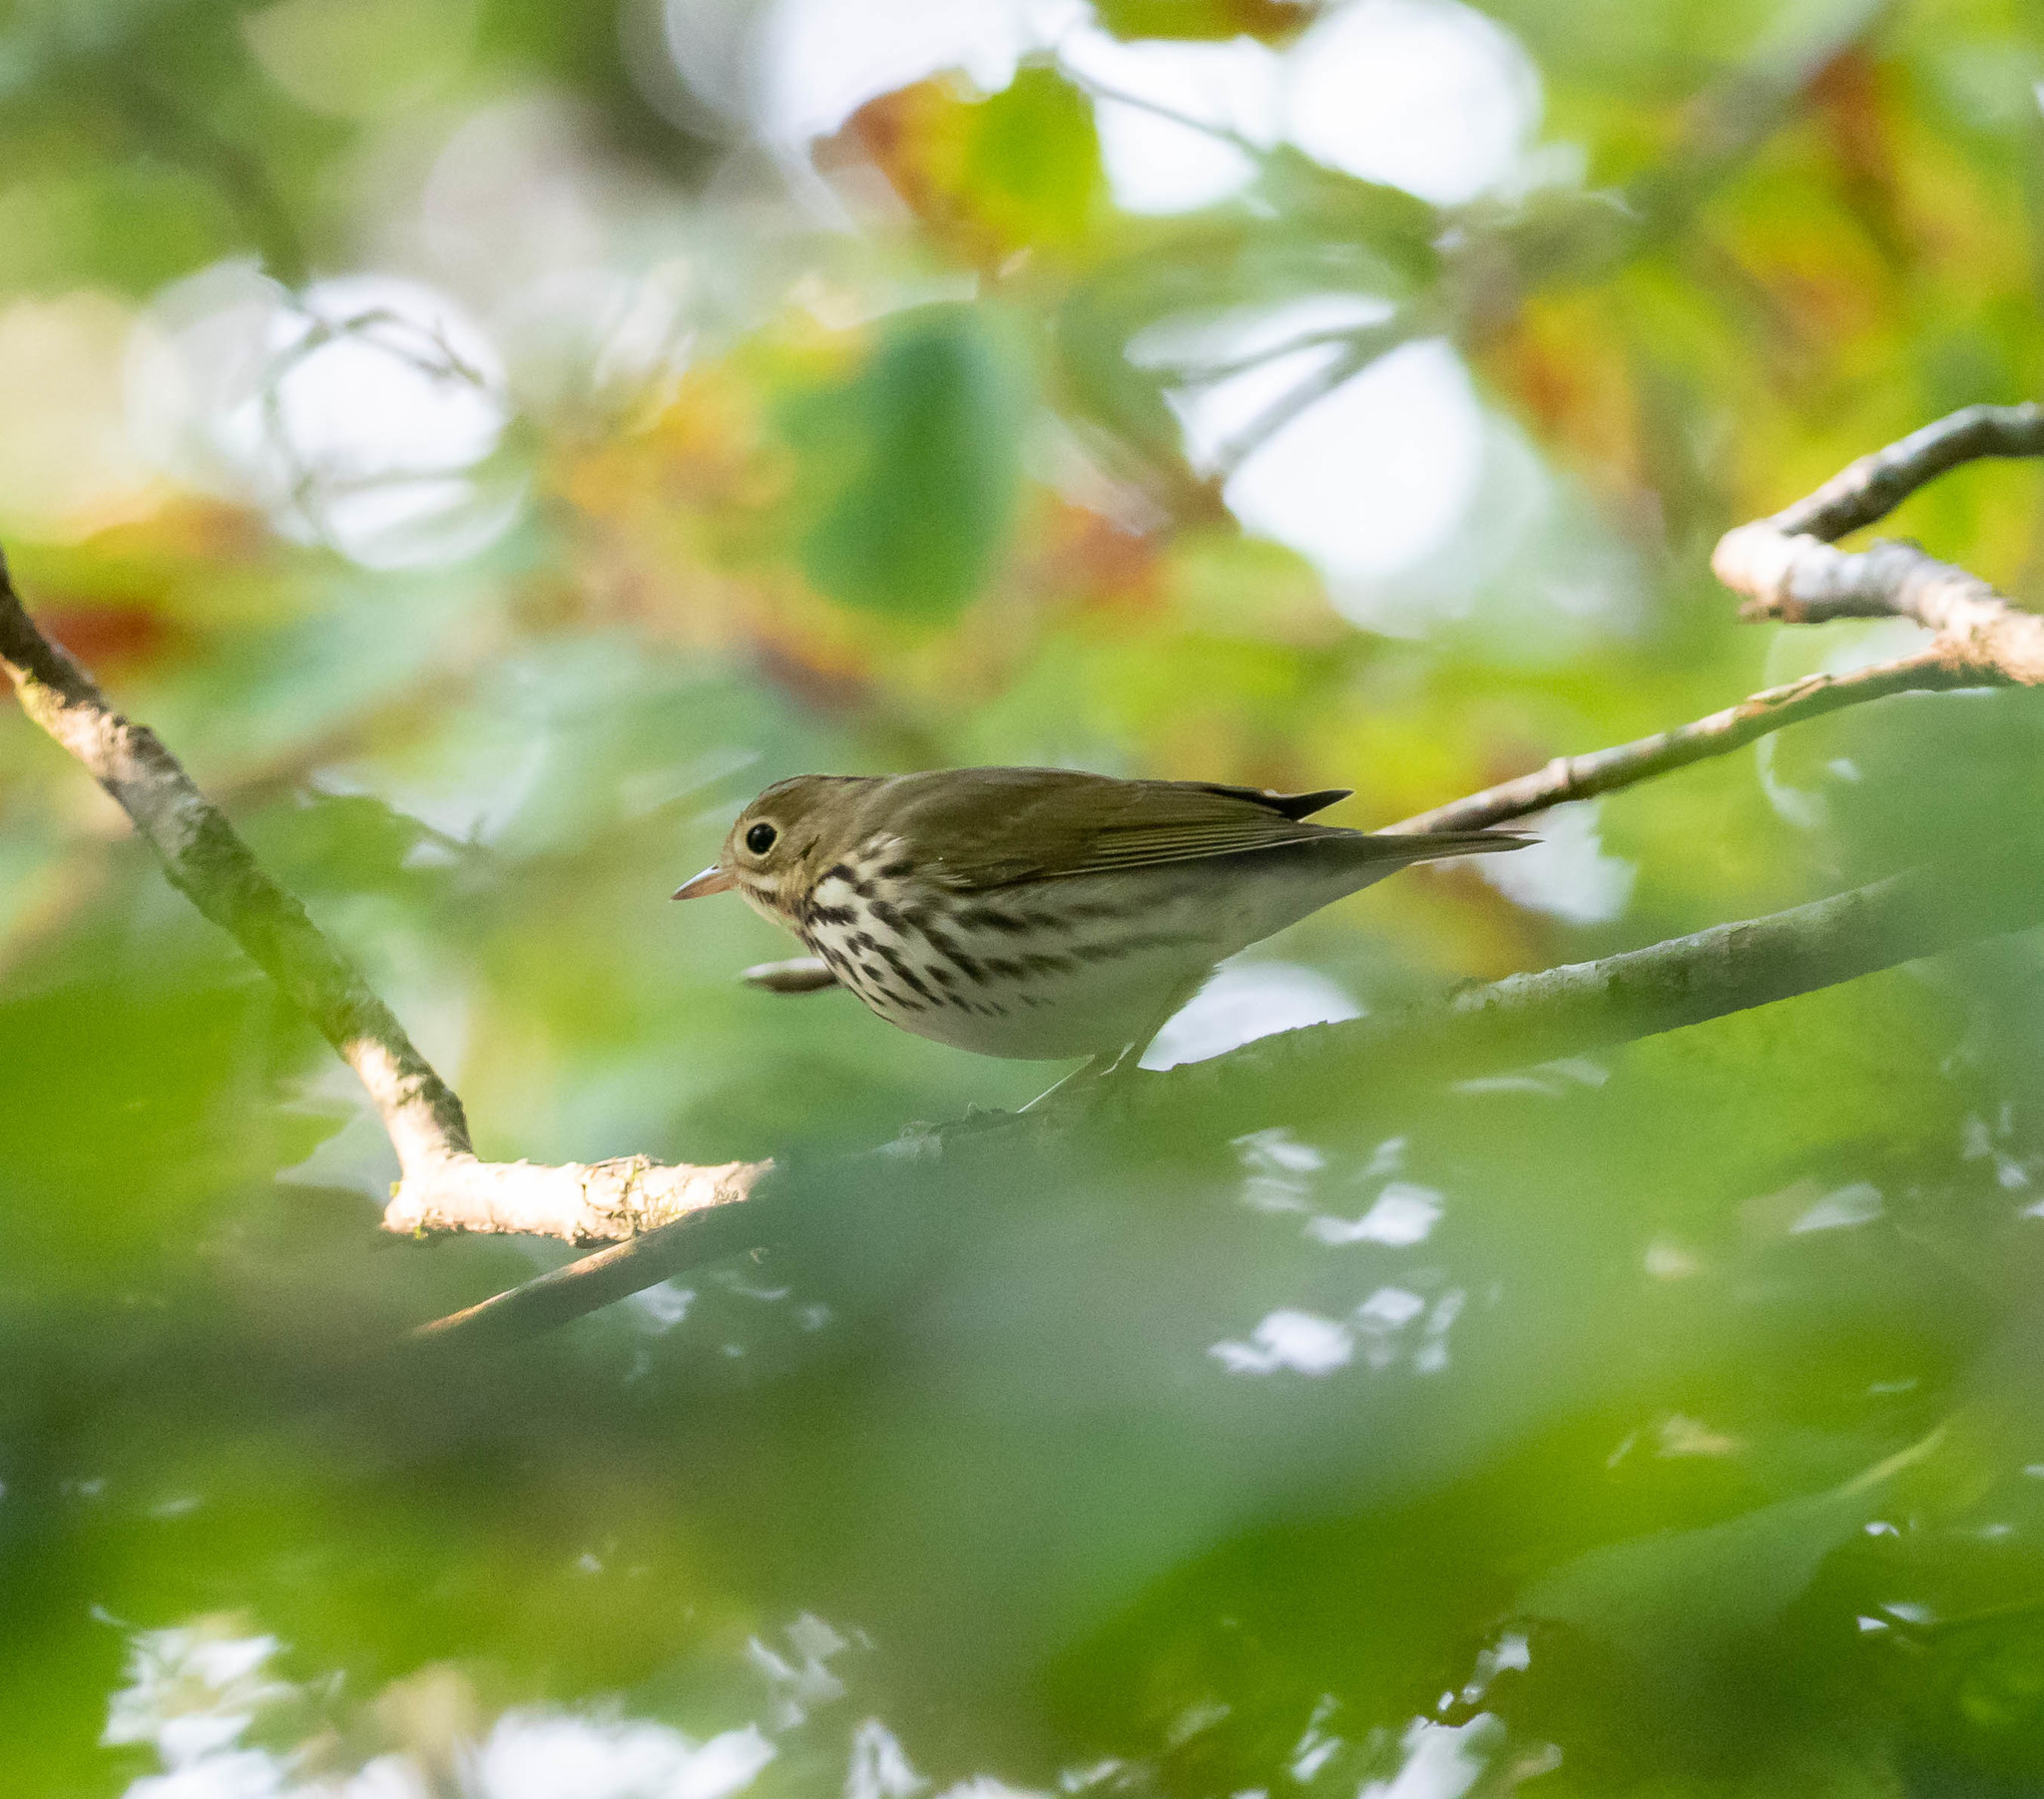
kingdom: Animalia
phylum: Chordata
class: Aves
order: Passeriformes
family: Parulidae
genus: Seiurus
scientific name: Seiurus aurocapilla
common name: Ovenbird
